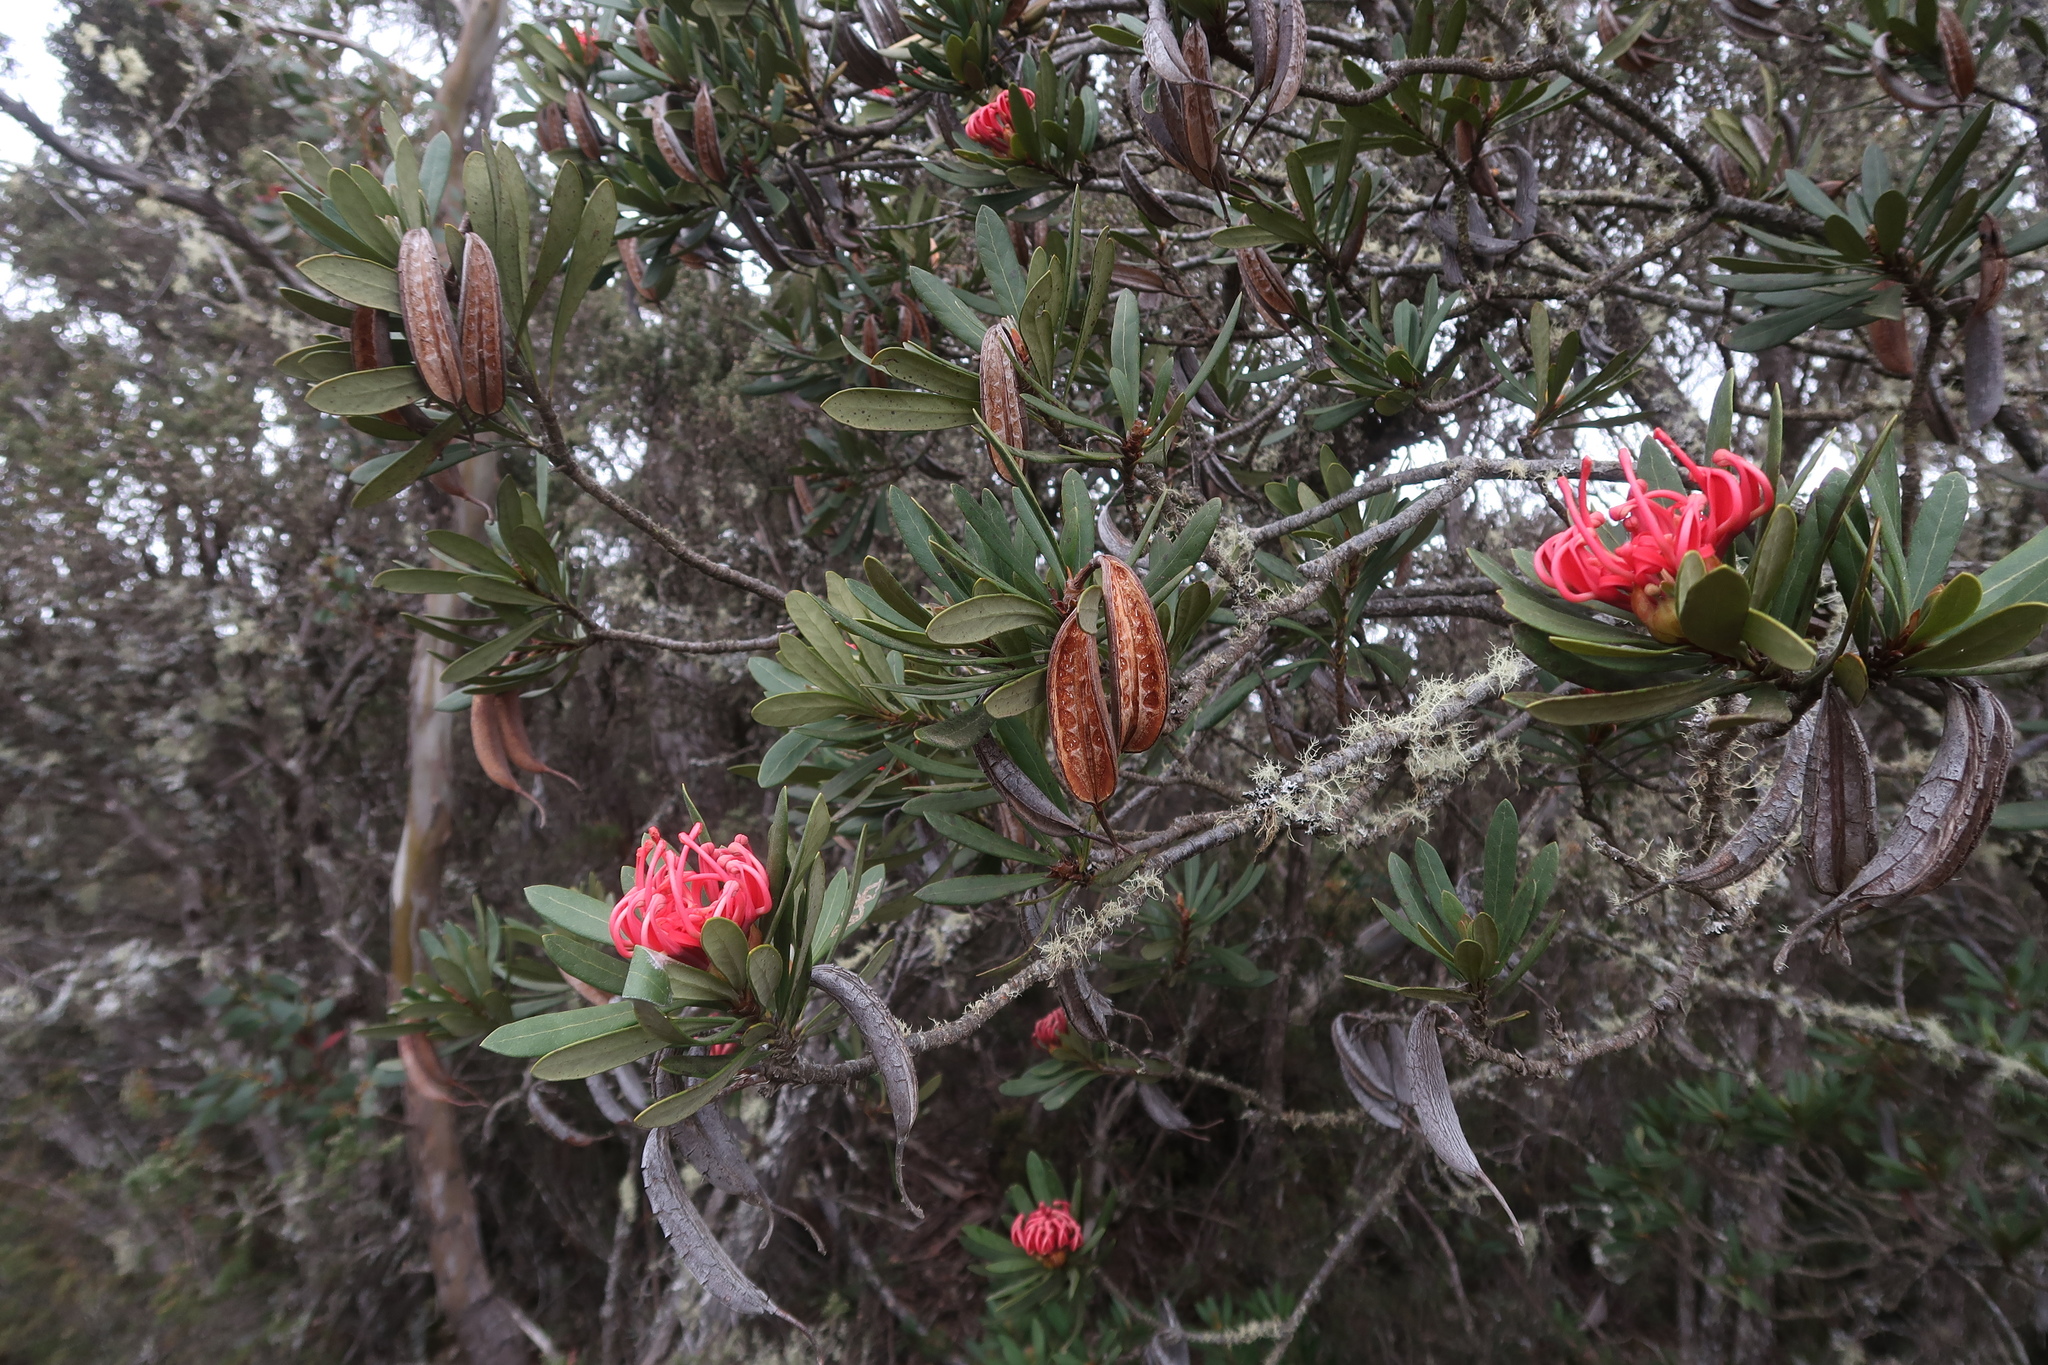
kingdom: Plantae
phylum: Tracheophyta
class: Magnoliopsida
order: Proteales
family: Proteaceae
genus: Telopea
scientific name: Telopea truncata
